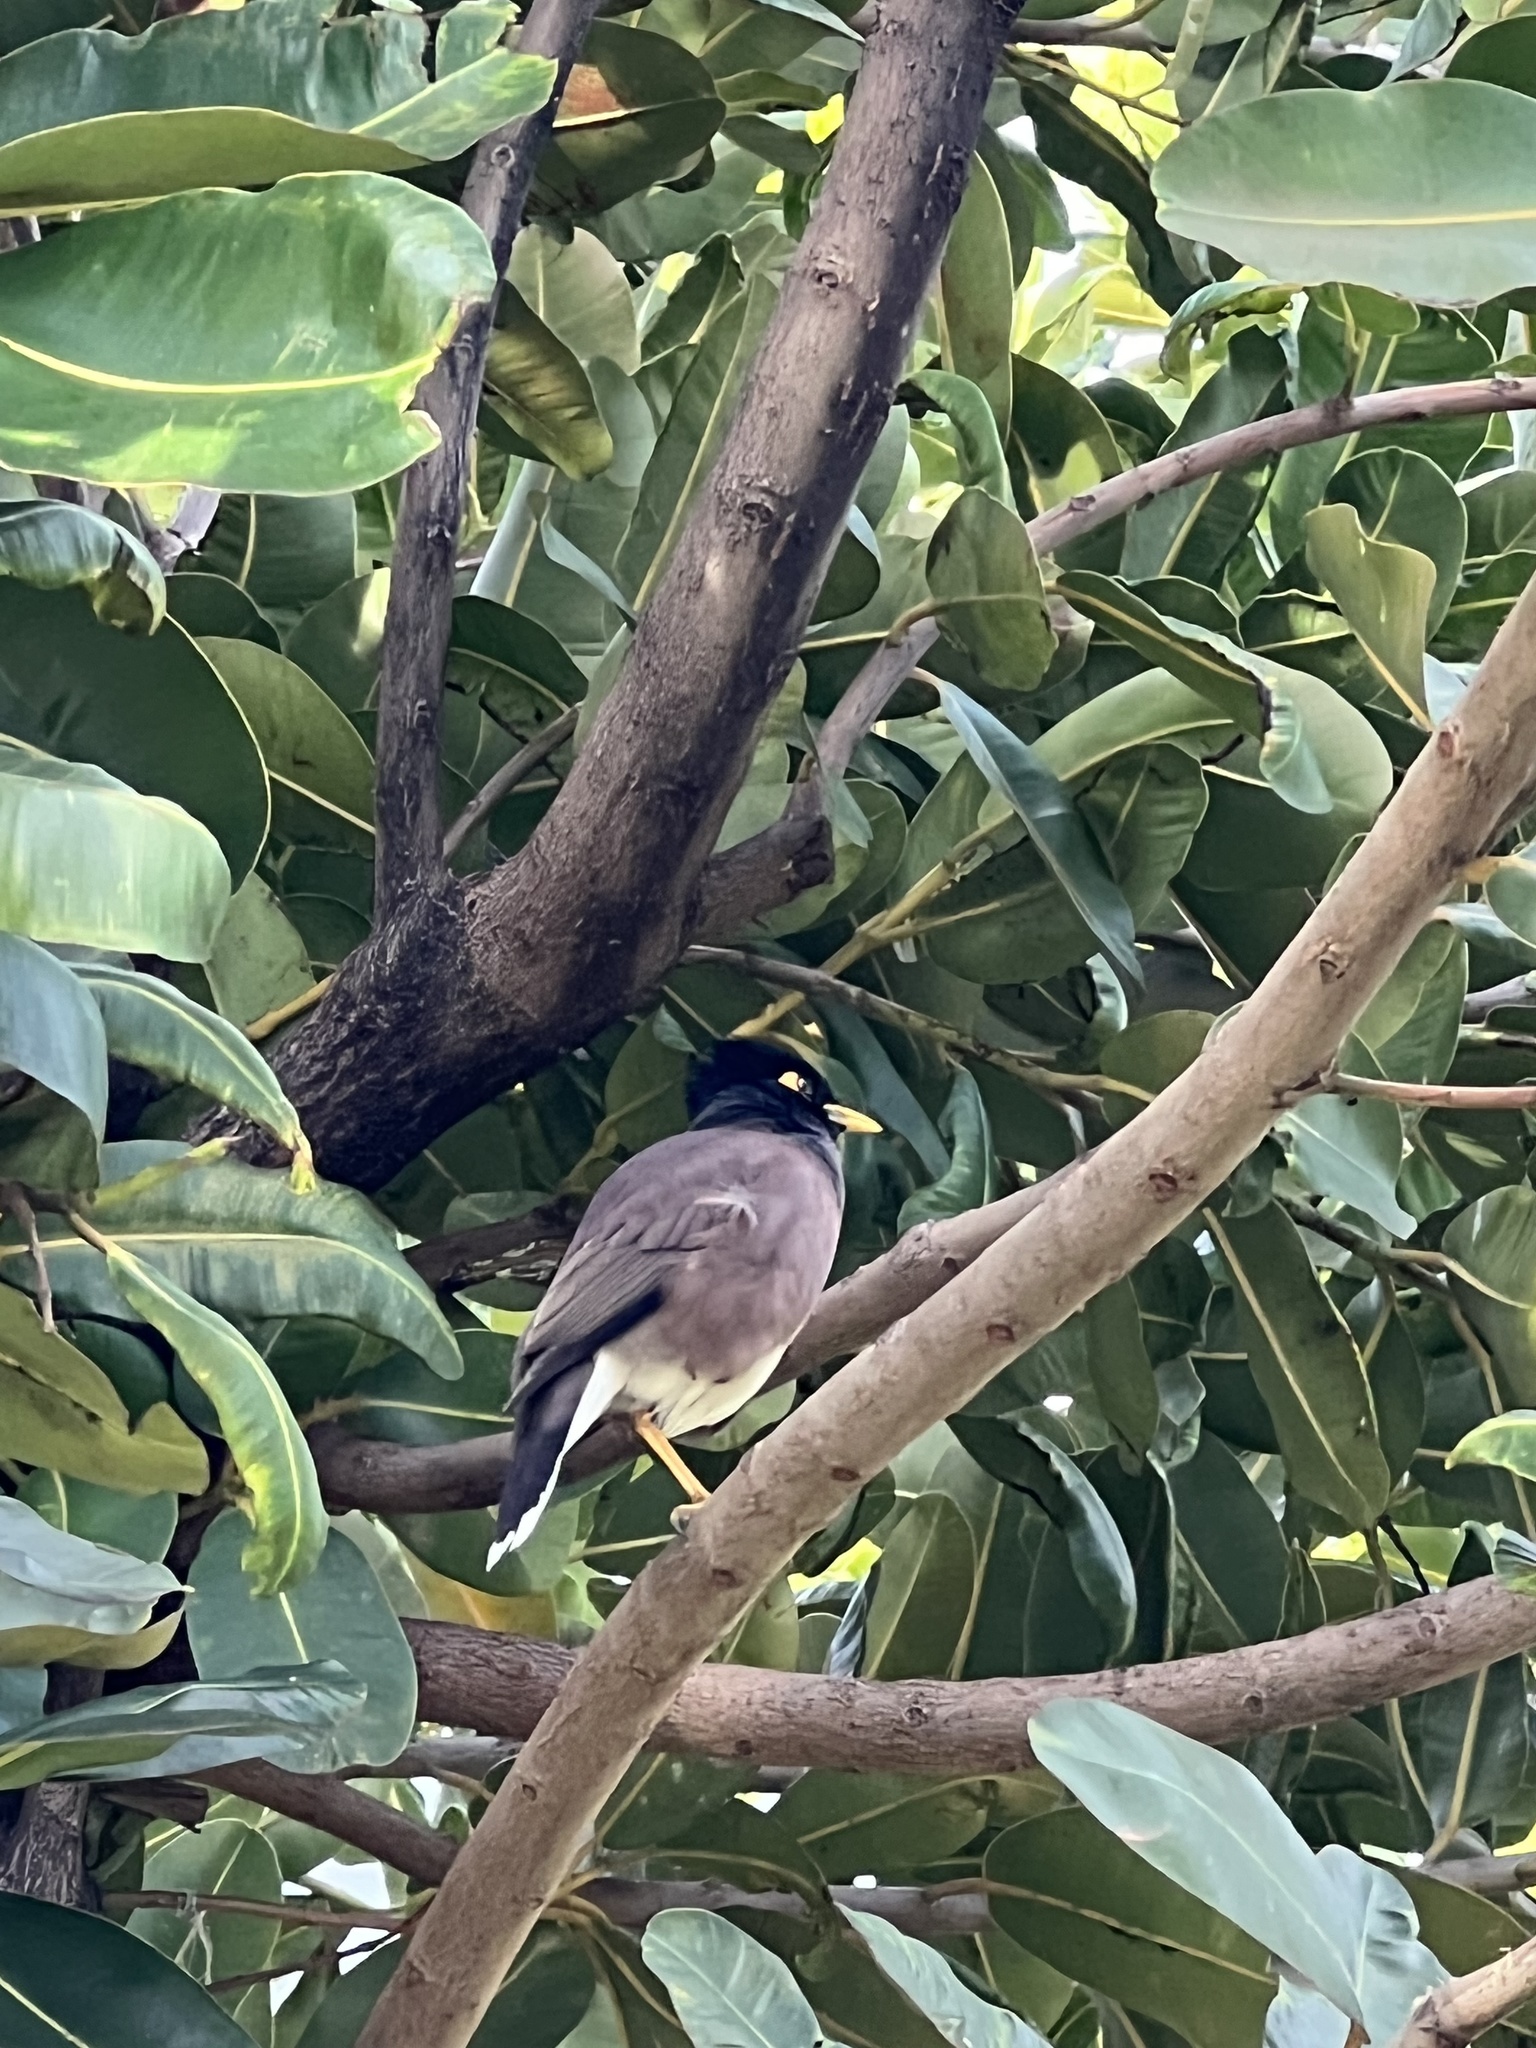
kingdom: Animalia
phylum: Chordata
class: Aves
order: Passeriformes
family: Sturnidae
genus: Acridotheres
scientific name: Acridotheres tristis
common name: Common myna
